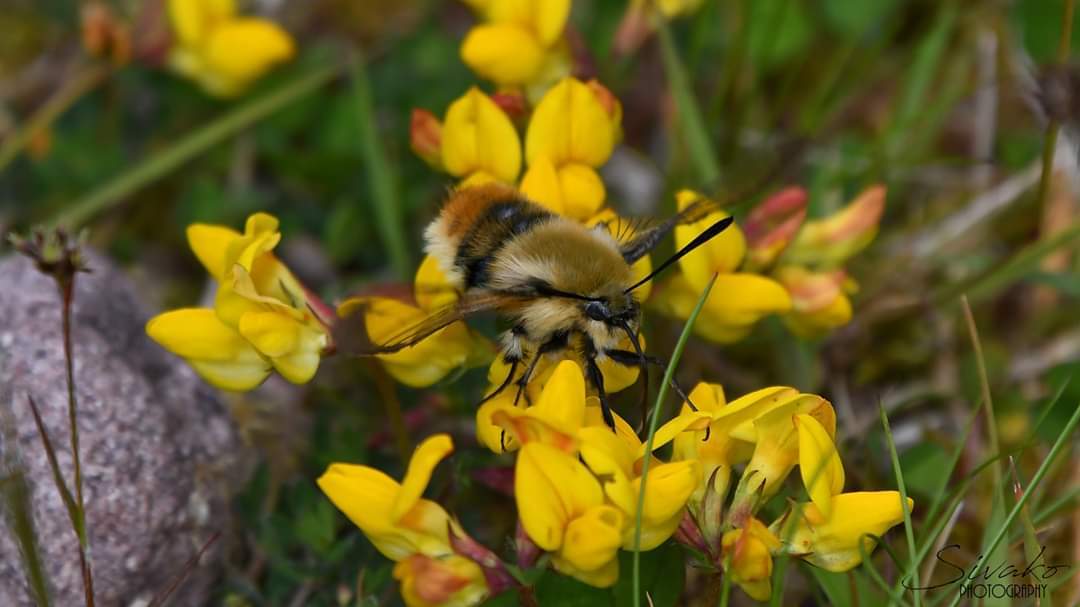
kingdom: Animalia
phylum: Arthropoda
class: Insecta
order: Lepidoptera
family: Sphingidae
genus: Hemaris
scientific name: Hemaris tityus
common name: Narrow-bordered bee hawk-moth
